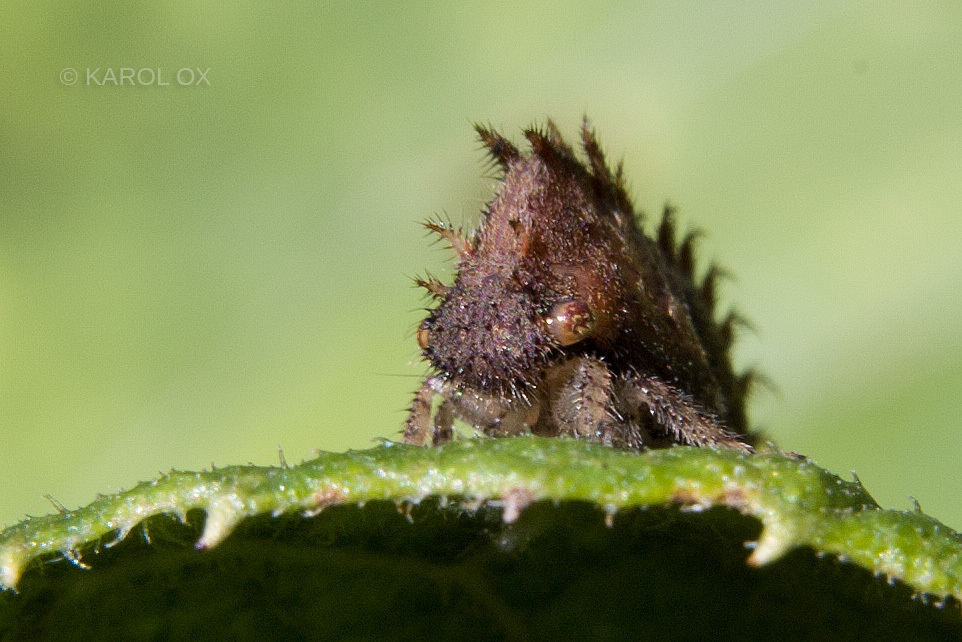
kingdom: Animalia
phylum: Arthropoda
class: Insecta
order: Hemiptera
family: Membracidae
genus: Stictocephala
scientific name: Stictocephala bisonia
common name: American buffalo treehopper
